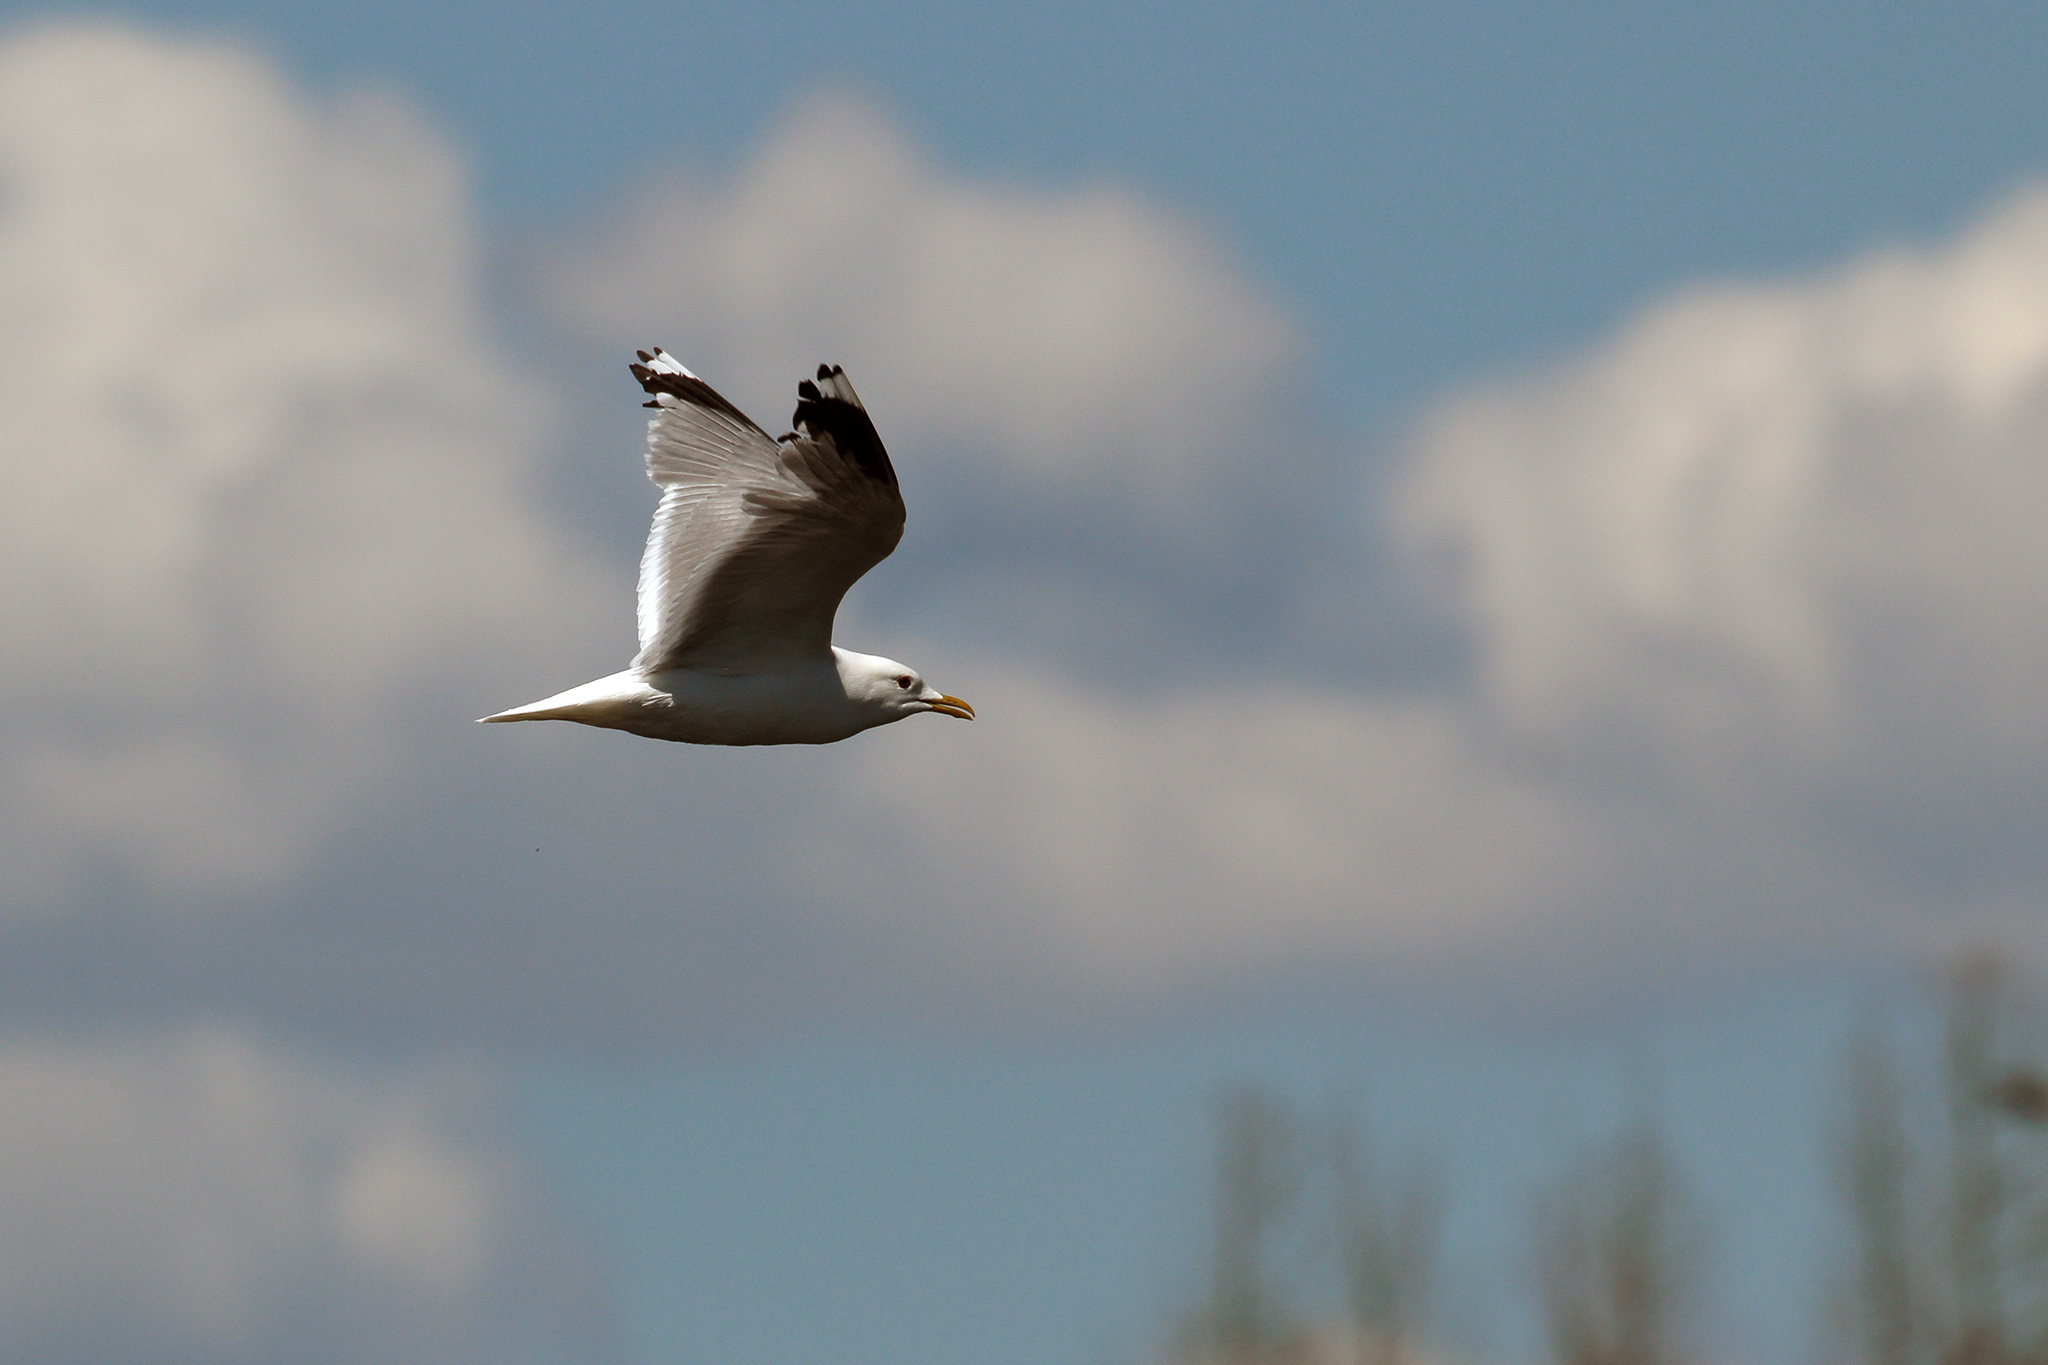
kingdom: Animalia
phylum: Chordata
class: Aves
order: Charadriiformes
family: Laridae
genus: Larus
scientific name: Larus canus
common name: Mew gull
